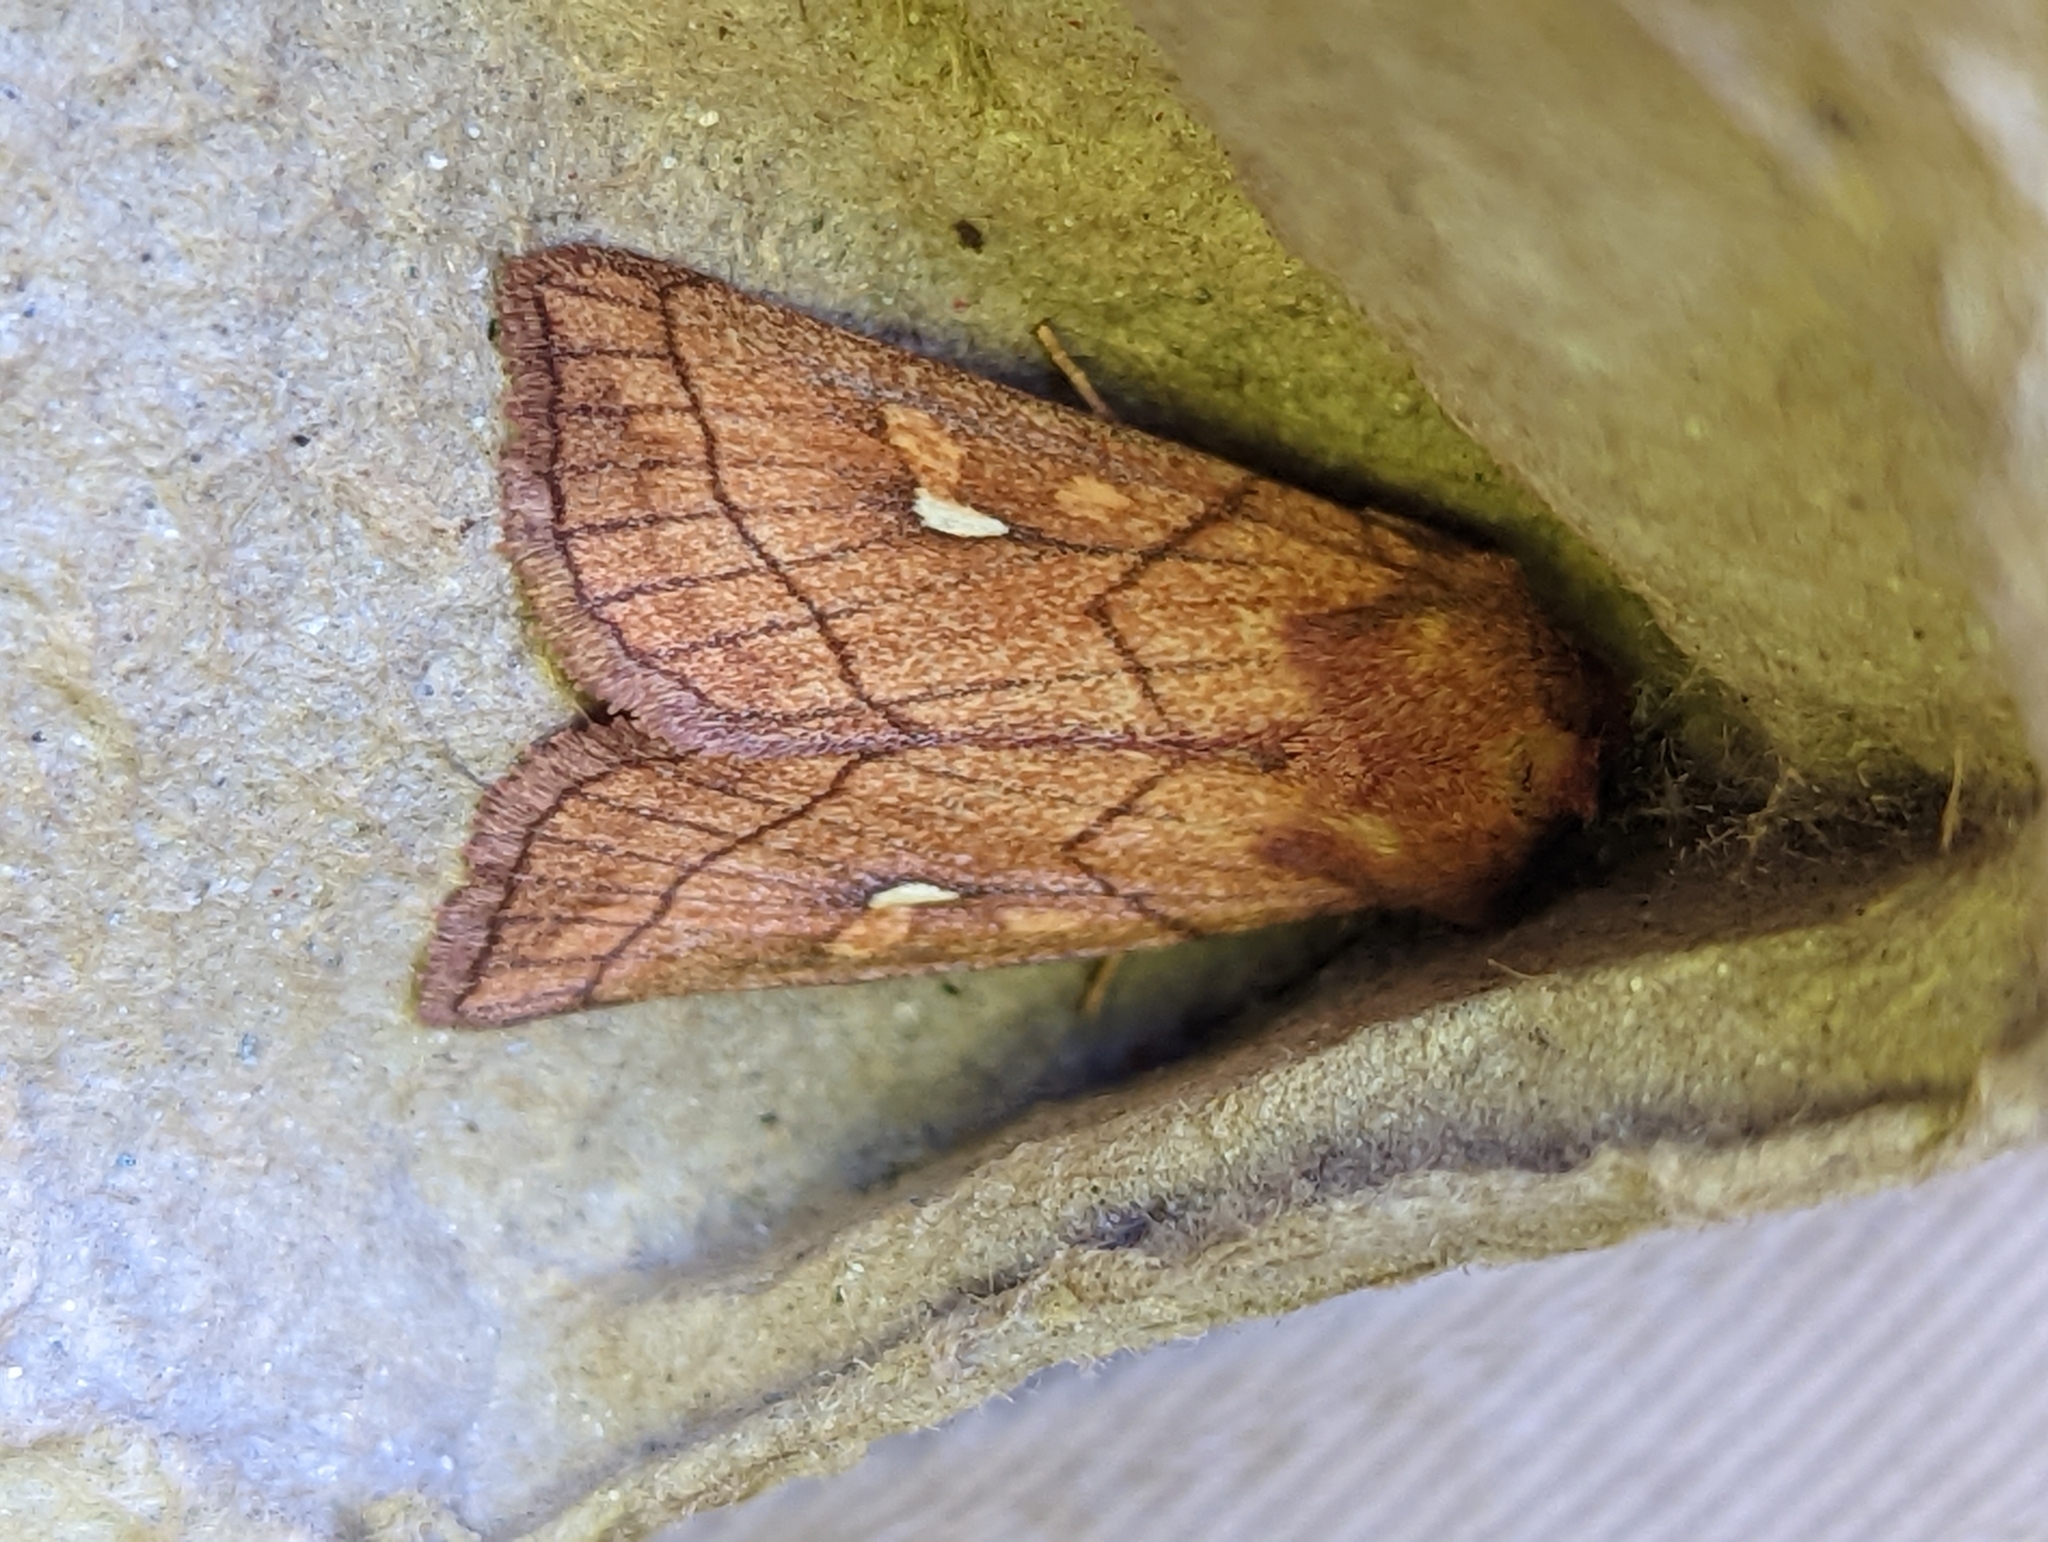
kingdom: Animalia
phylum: Arthropoda
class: Insecta
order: Lepidoptera
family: Noctuidae
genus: Mythimna
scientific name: Mythimna conigera
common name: Brown-line bright-eye
